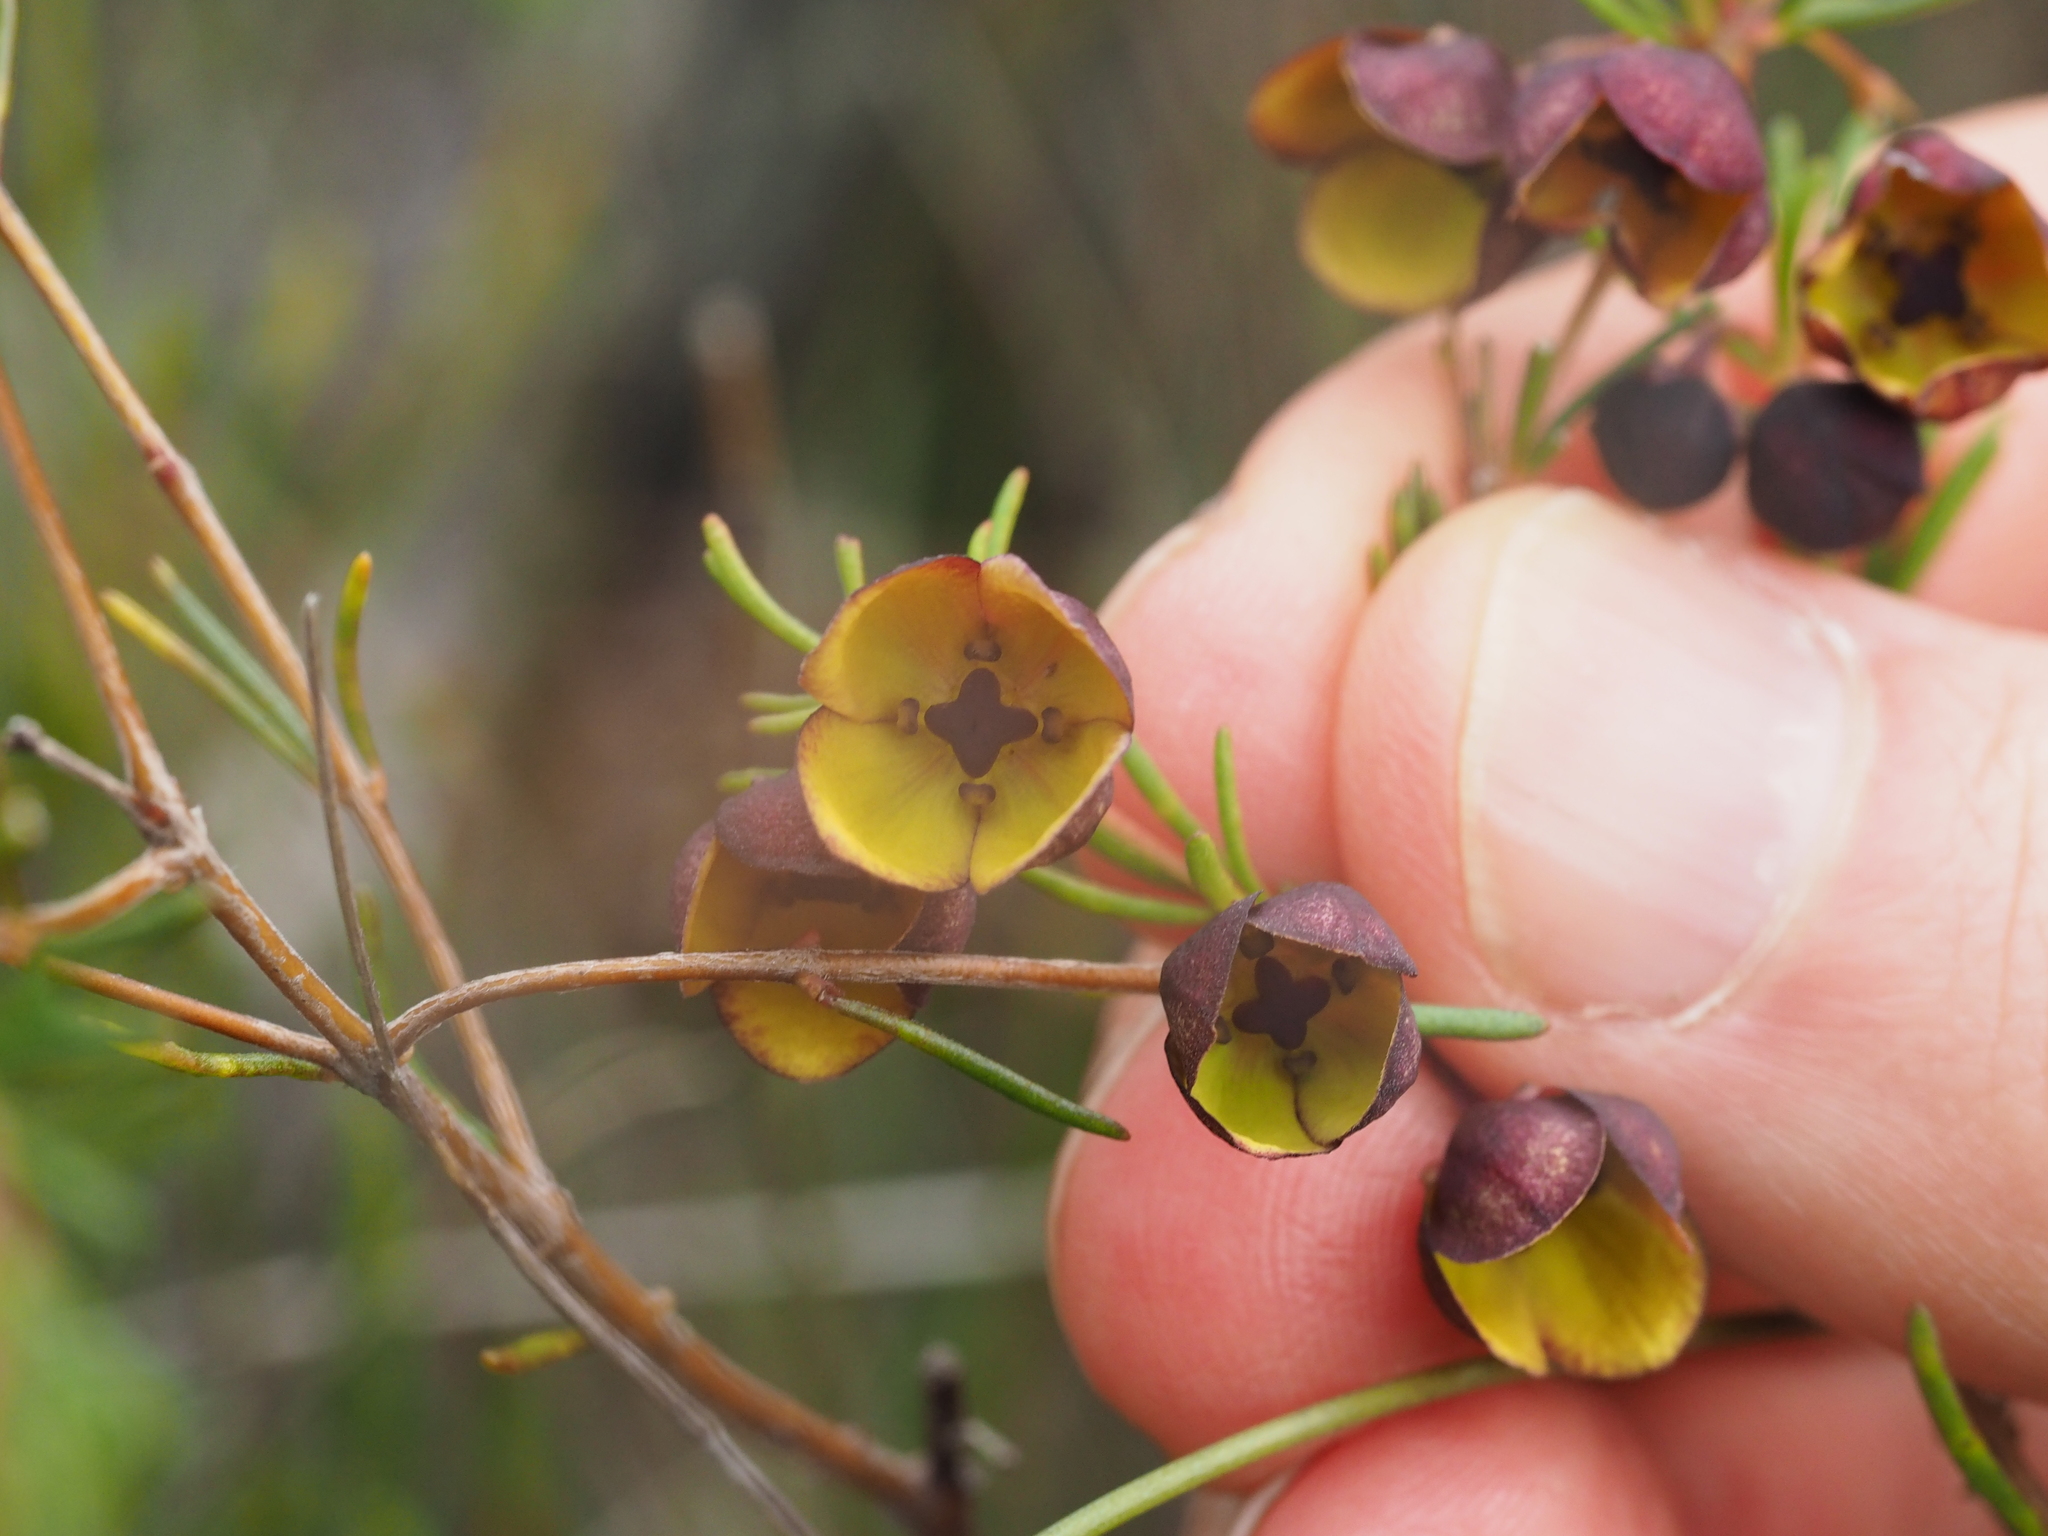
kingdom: Plantae
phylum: Tracheophyta
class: Magnoliopsida
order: Sapindales
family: Rutaceae
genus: Boronia
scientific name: Boronia megastigma
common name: Sweet boronia
